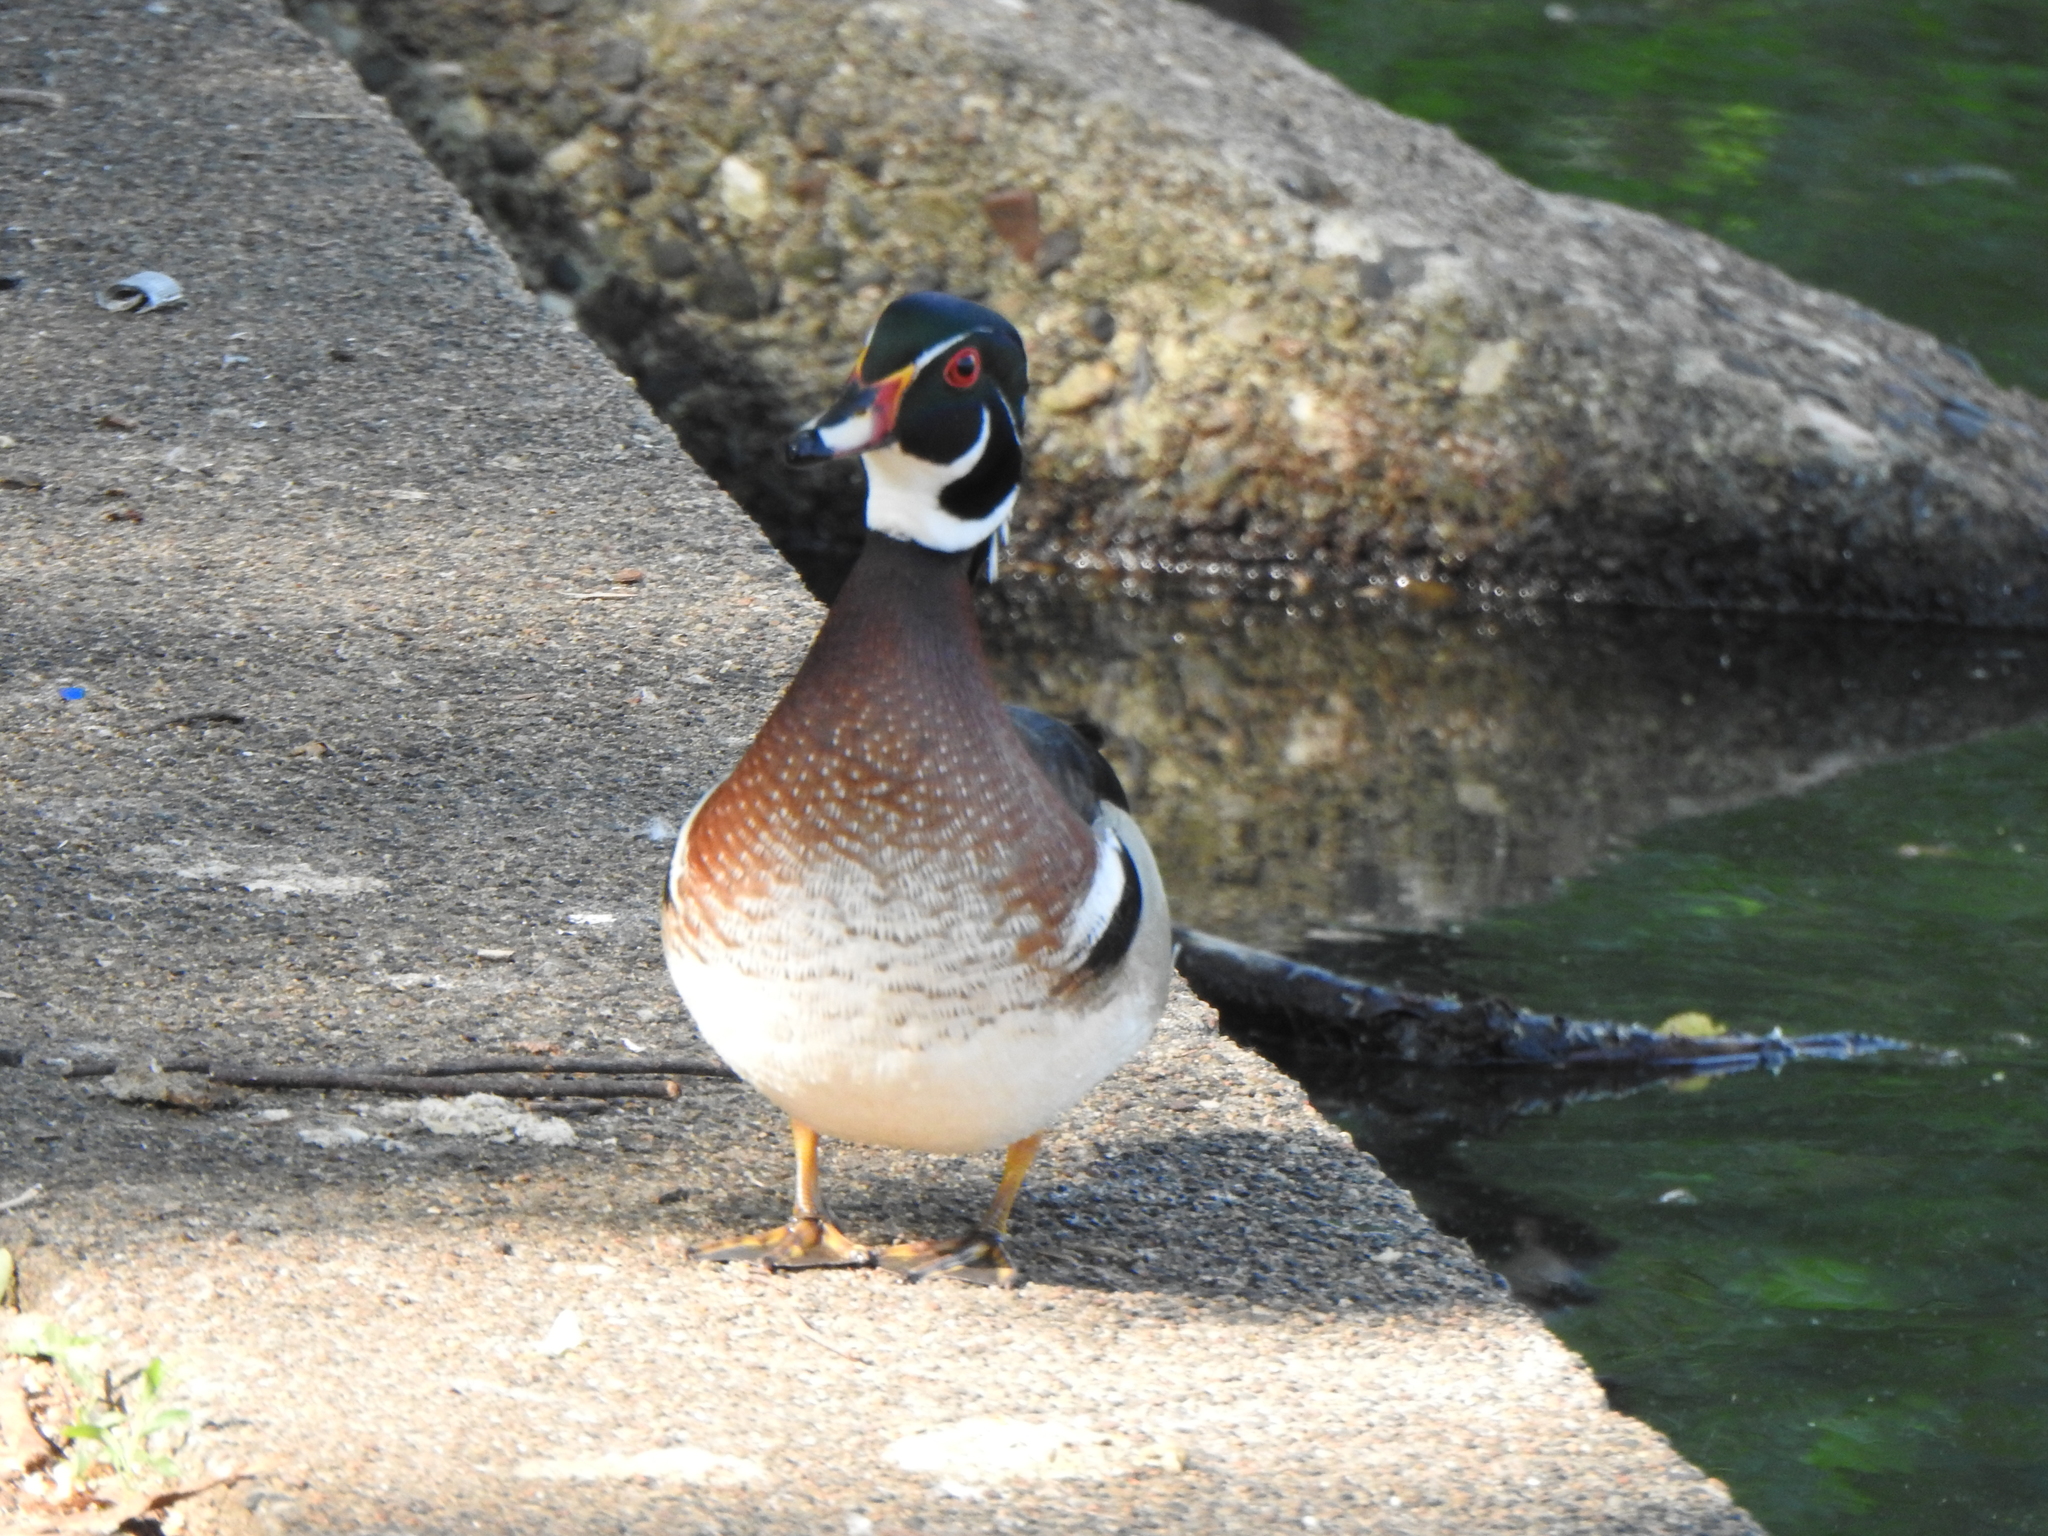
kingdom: Animalia
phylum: Chordata
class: Aves
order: Anseriformes
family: Anatidae
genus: Aix
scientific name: Aix sponsa
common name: Wood duck
